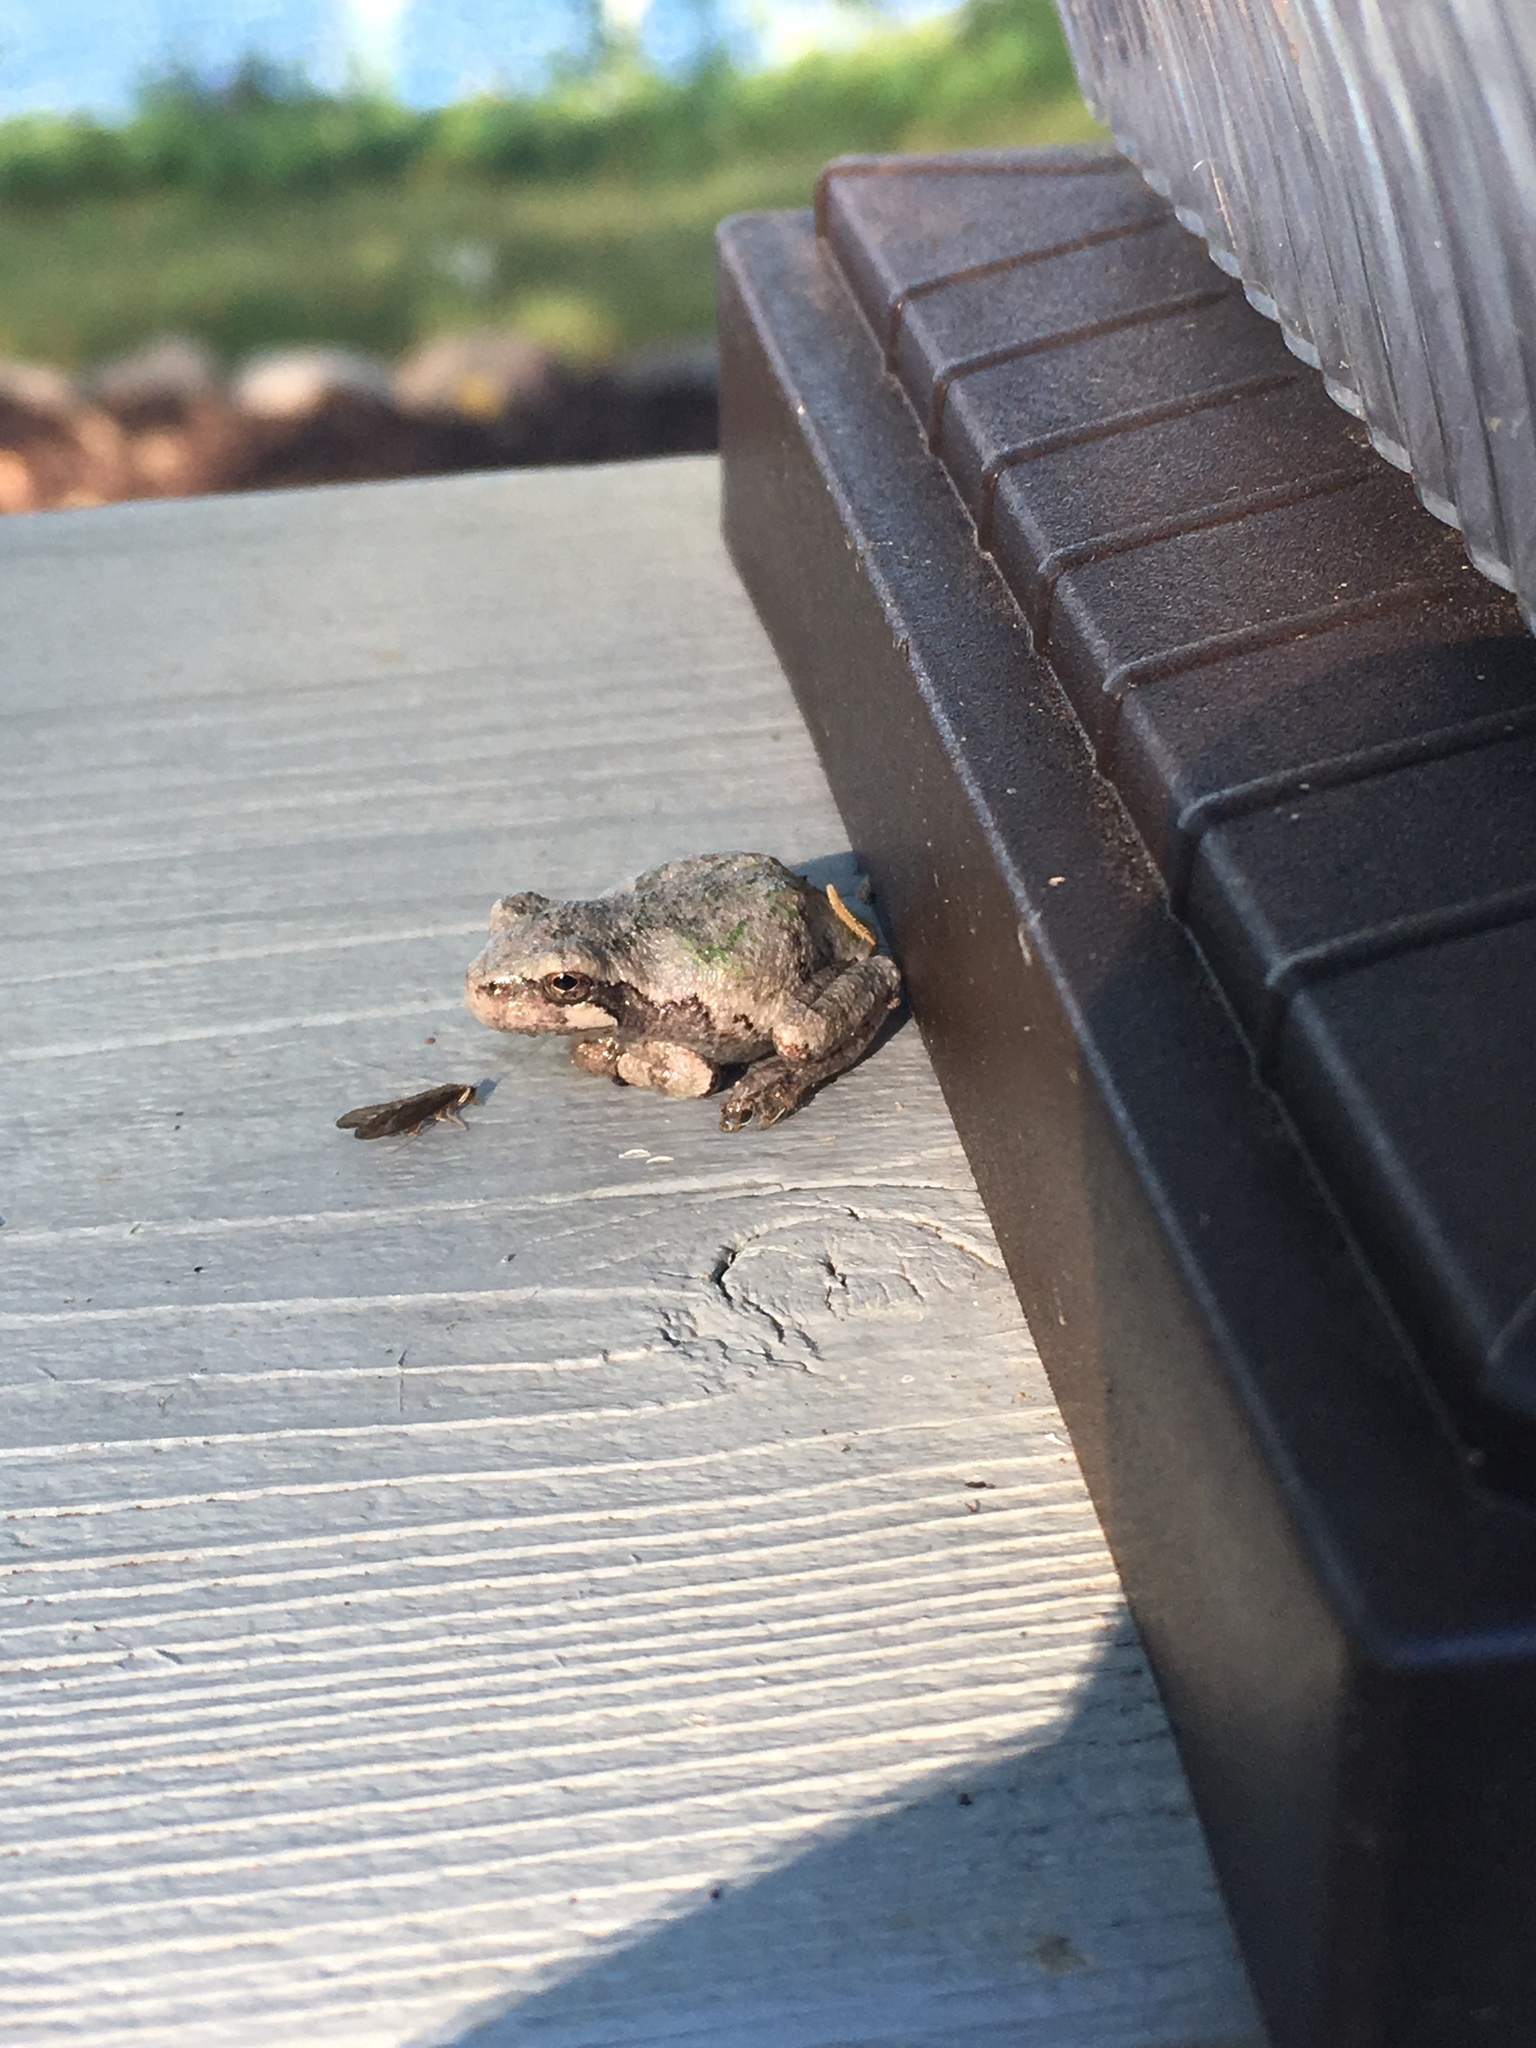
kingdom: Animalia
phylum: Chordata
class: Amphibia
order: Anura
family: Hylidae
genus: Hyla
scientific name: Hyla
